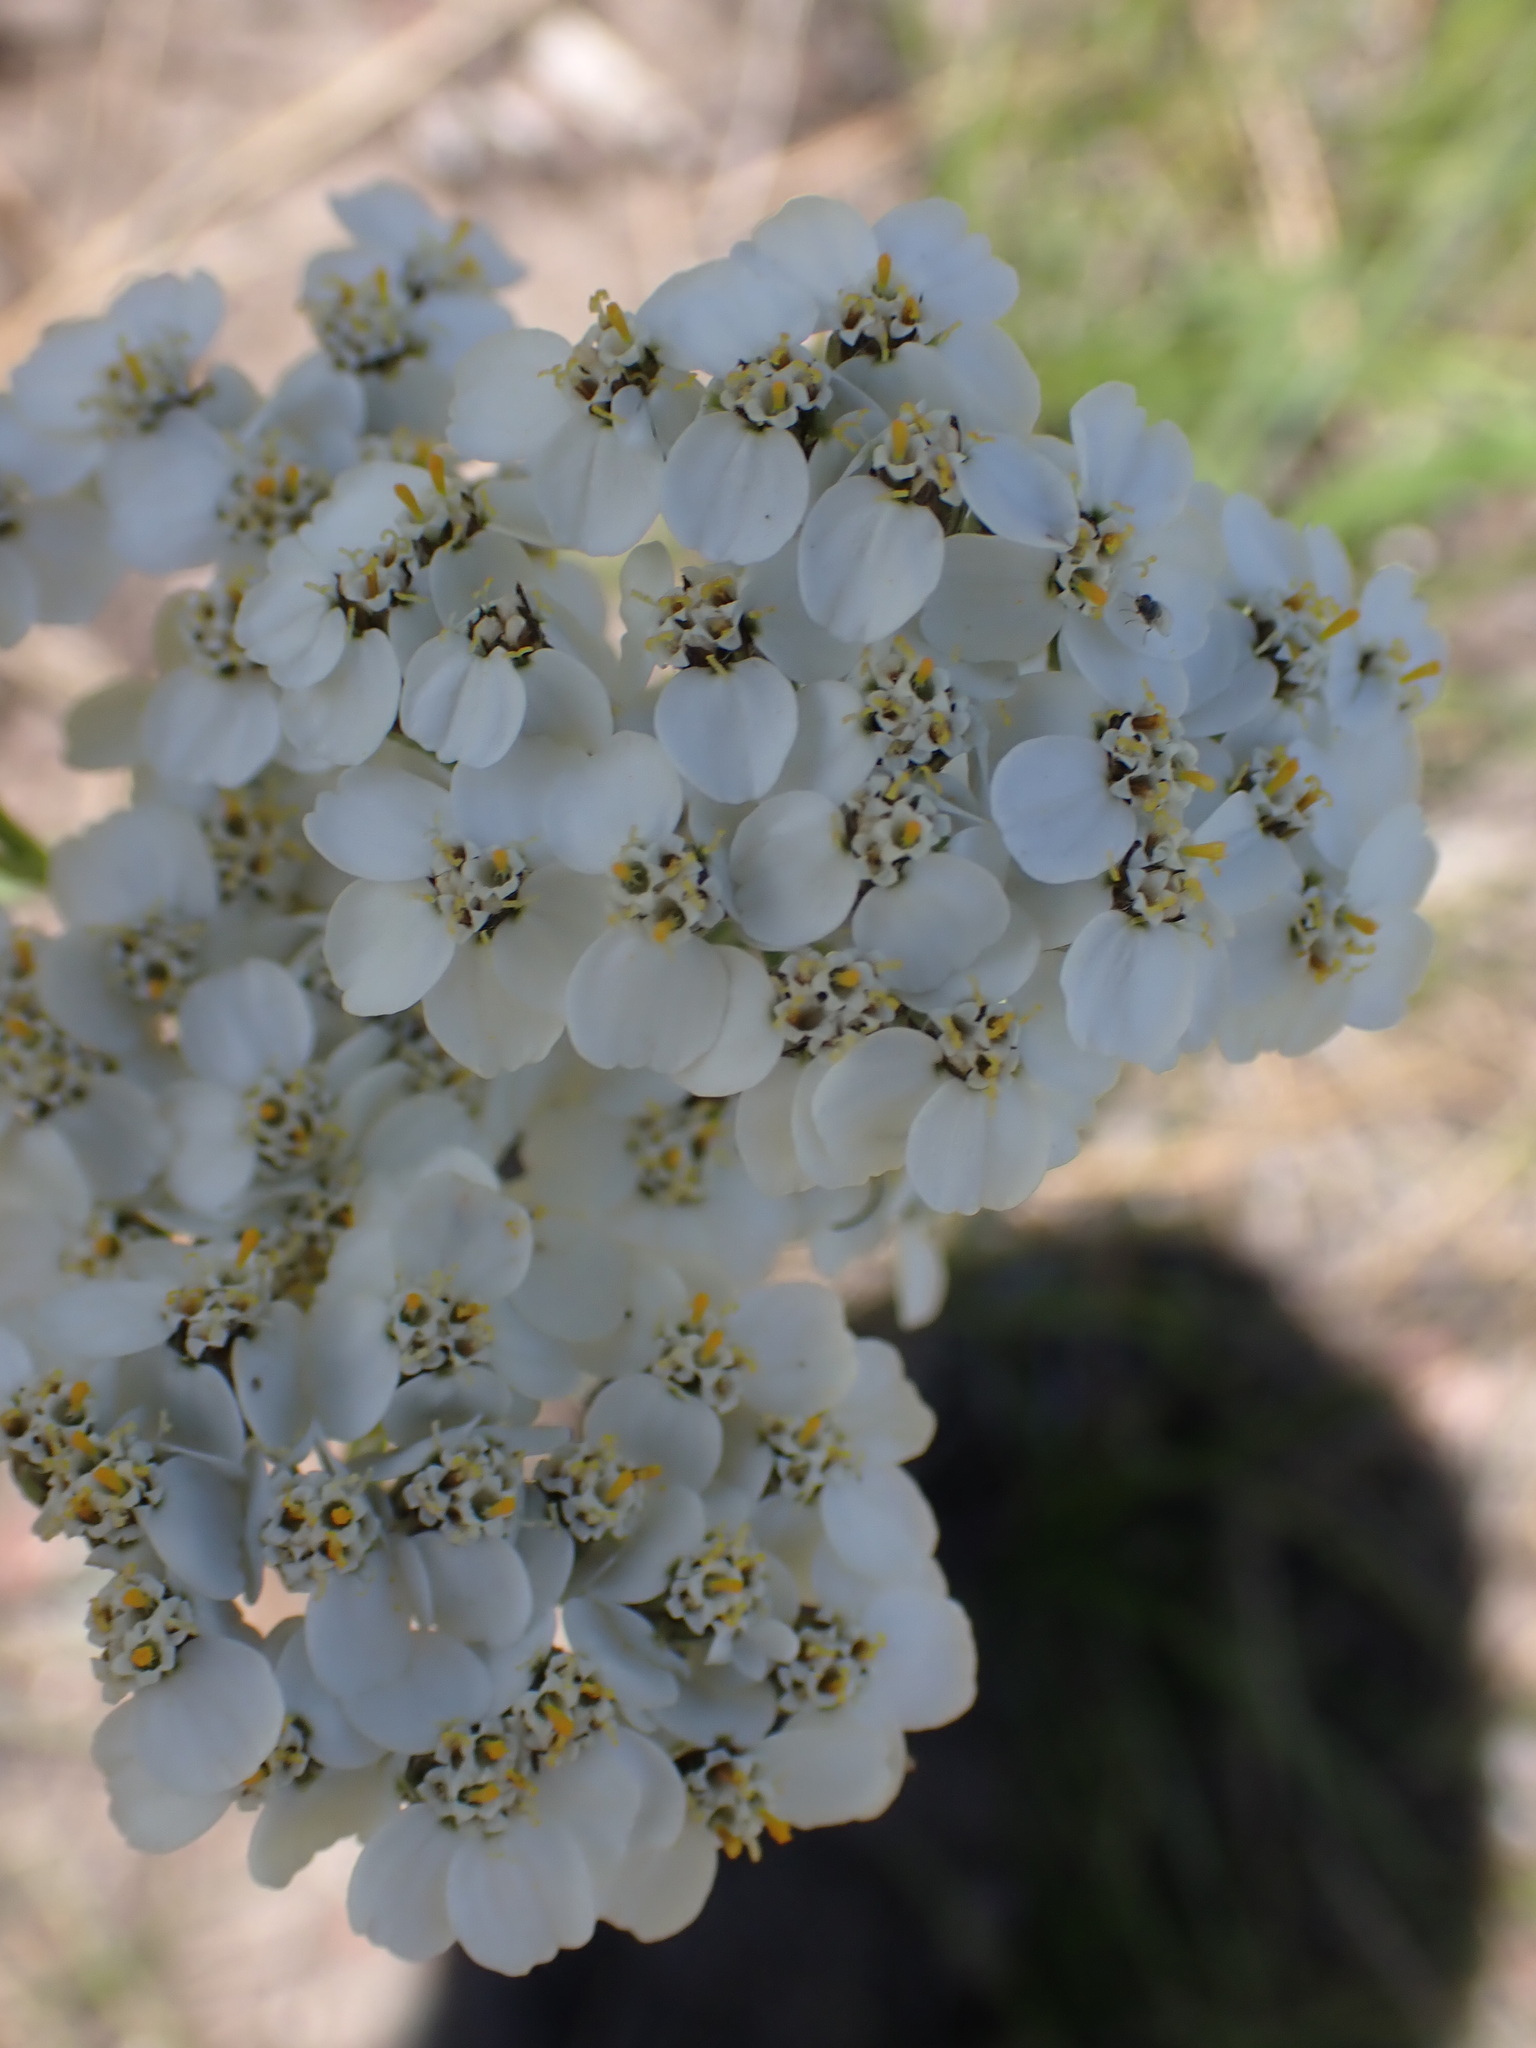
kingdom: Plantae
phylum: Tracheophyta
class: Magnoliopsida
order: Asterales
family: Asteraceae
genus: Achillea
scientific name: Achillea millefolium
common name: Yarrow
